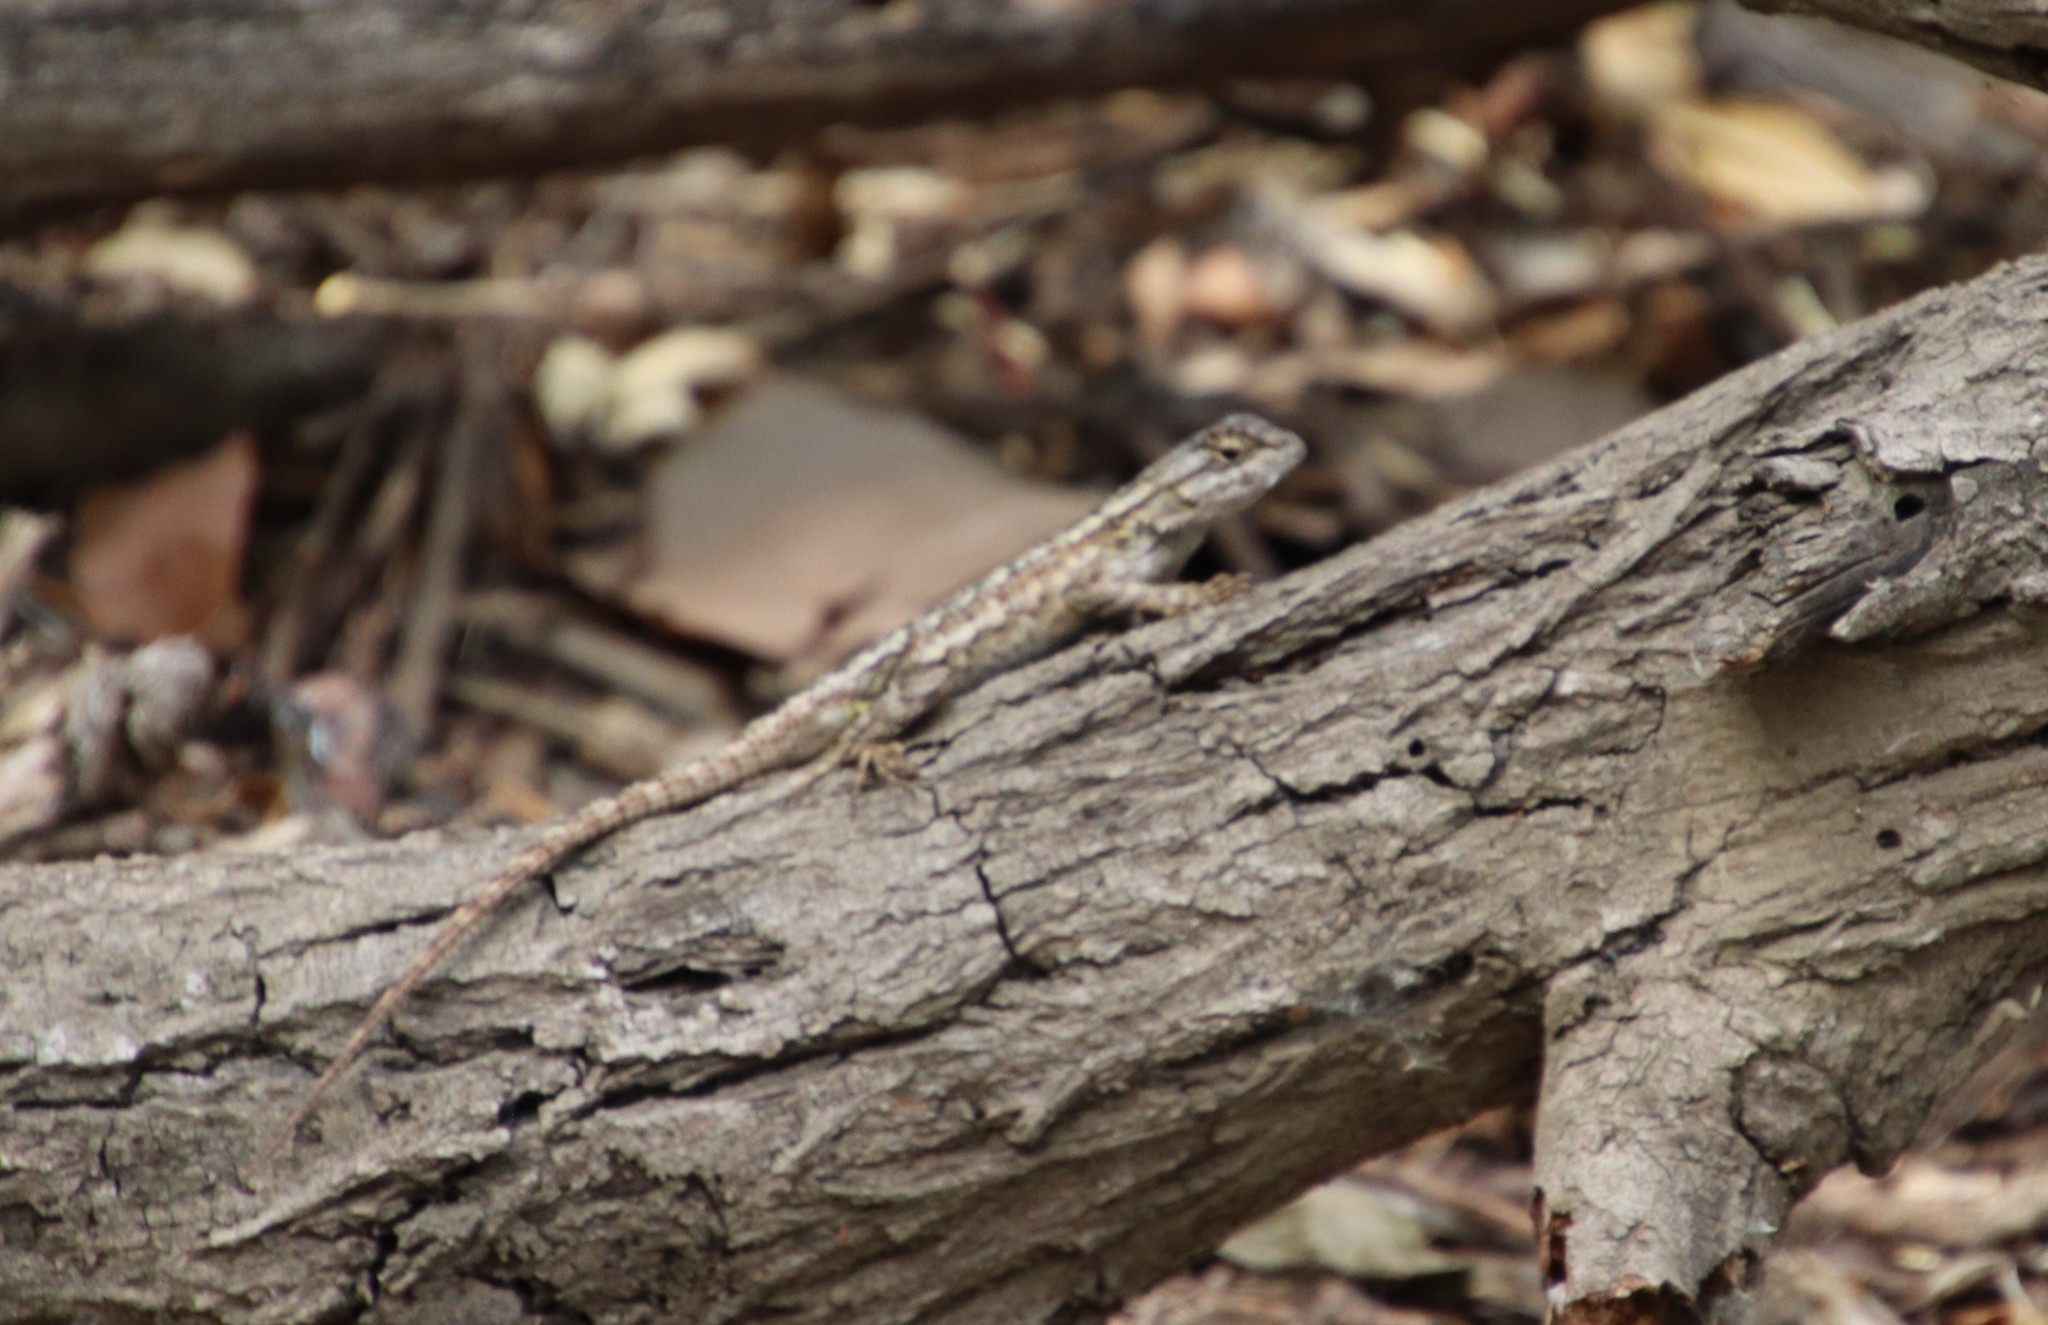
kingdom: Animalia
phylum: Chordata
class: Squamata
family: Phrynosomatidae
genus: Sceloporus
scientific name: Sceloporus occidentalis
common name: Western fence lizard
